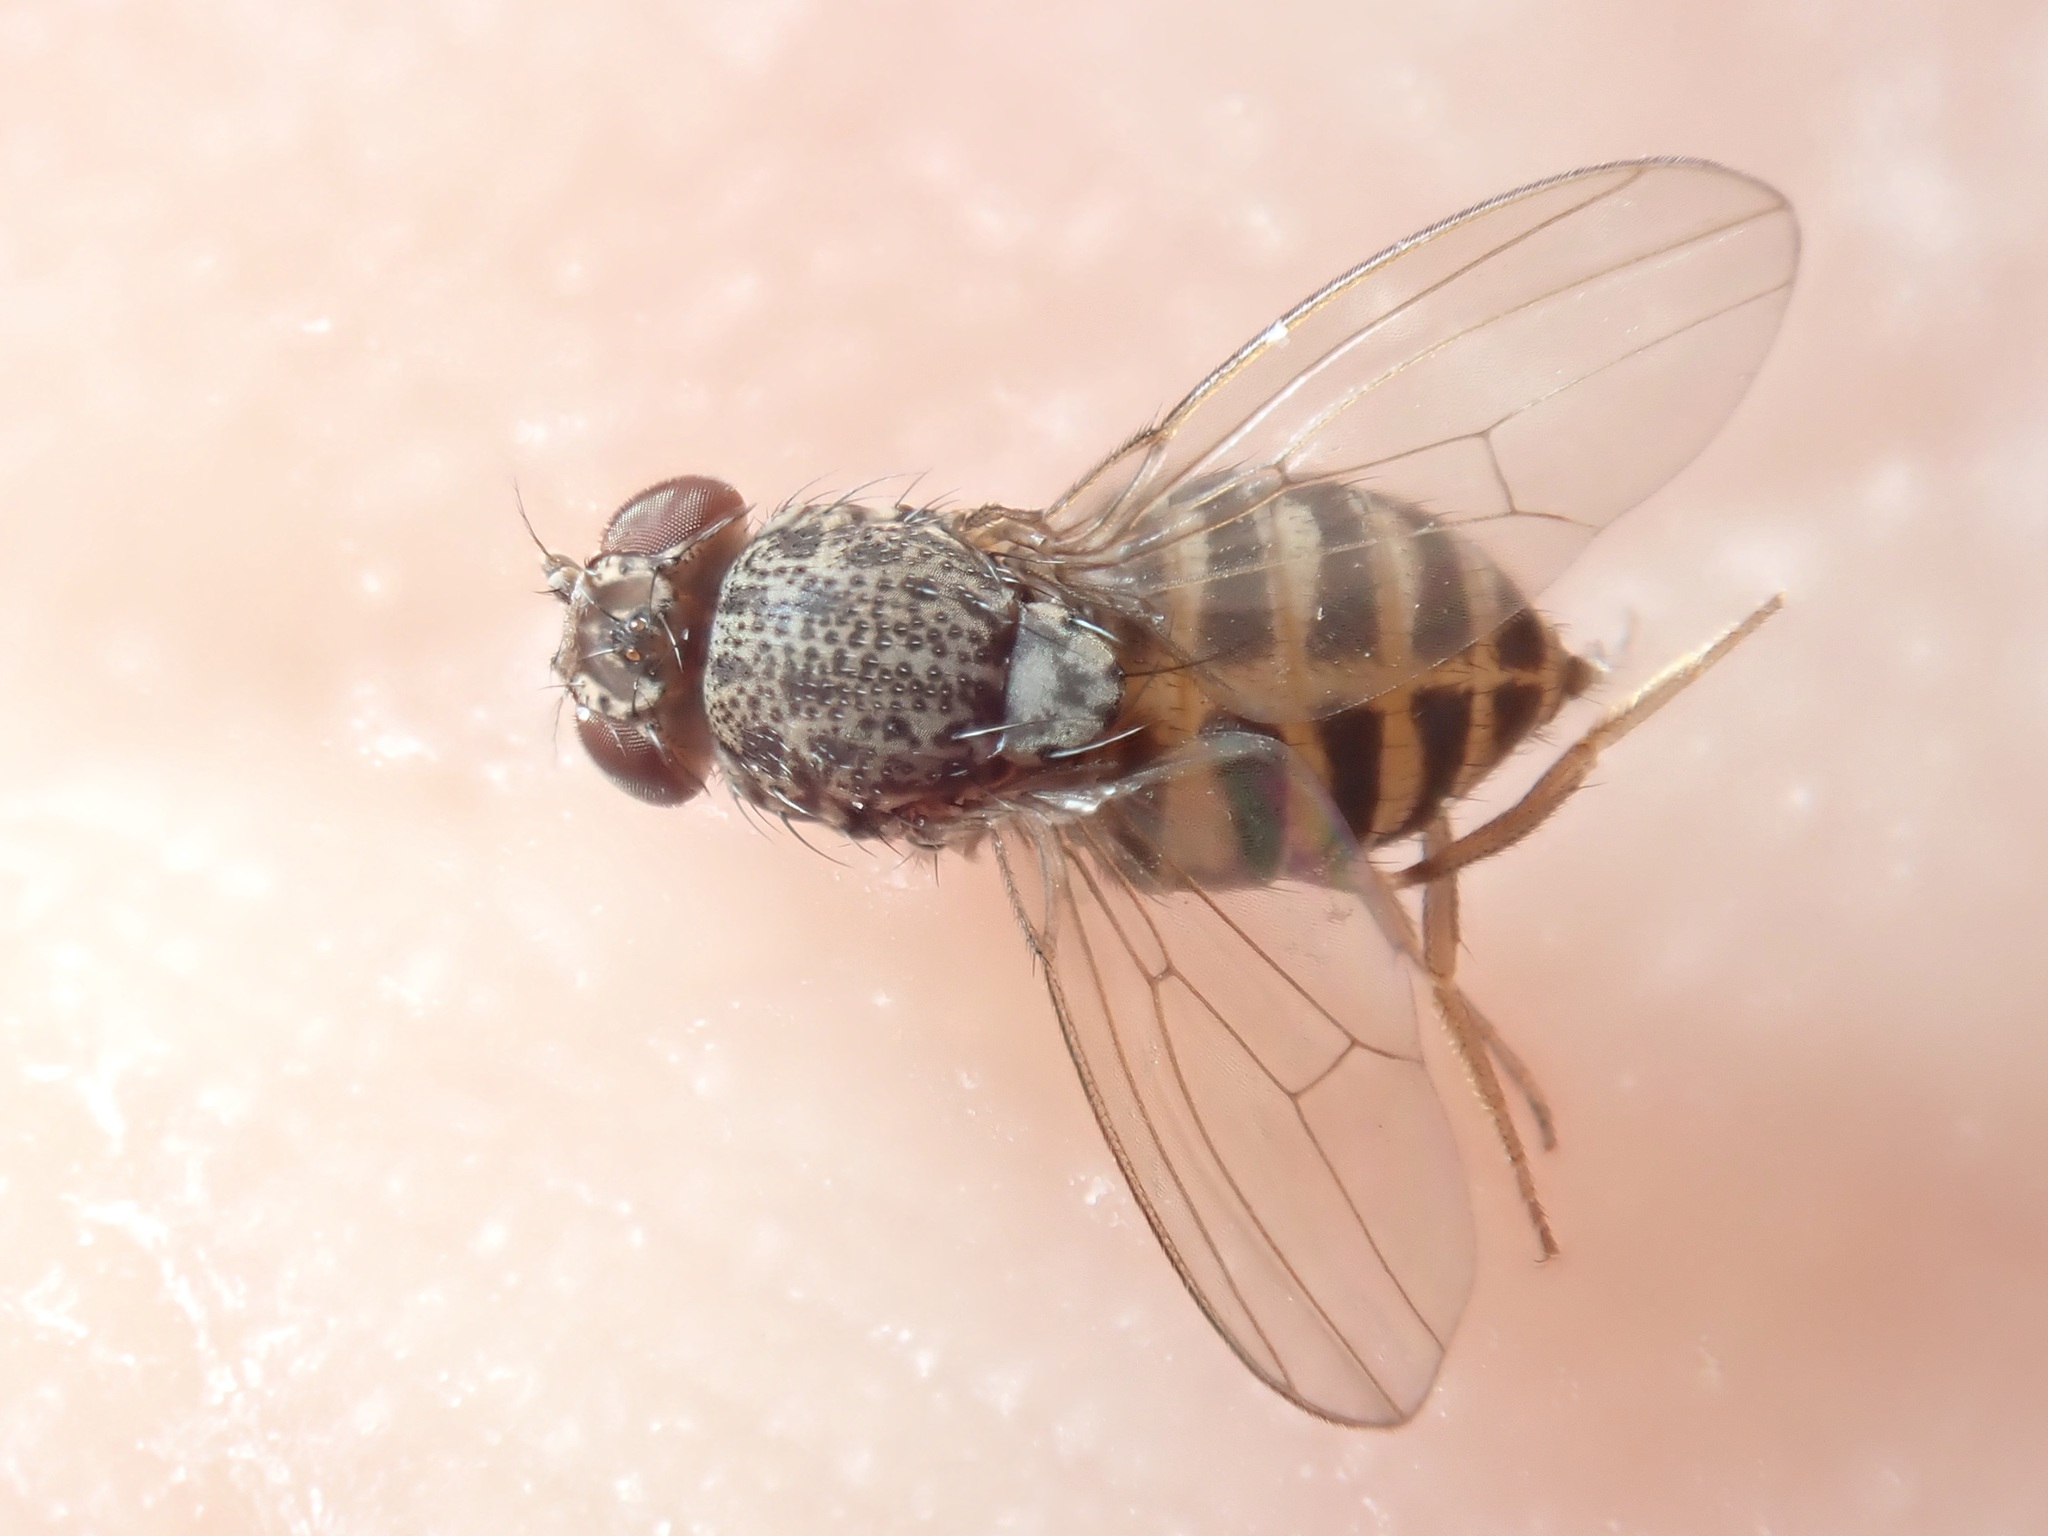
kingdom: Animalia
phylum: Arthropoda
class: Insecta
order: Diptera
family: Drosophilidae
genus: Drosophila
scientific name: Drosophila hydei
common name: Pomace fly
